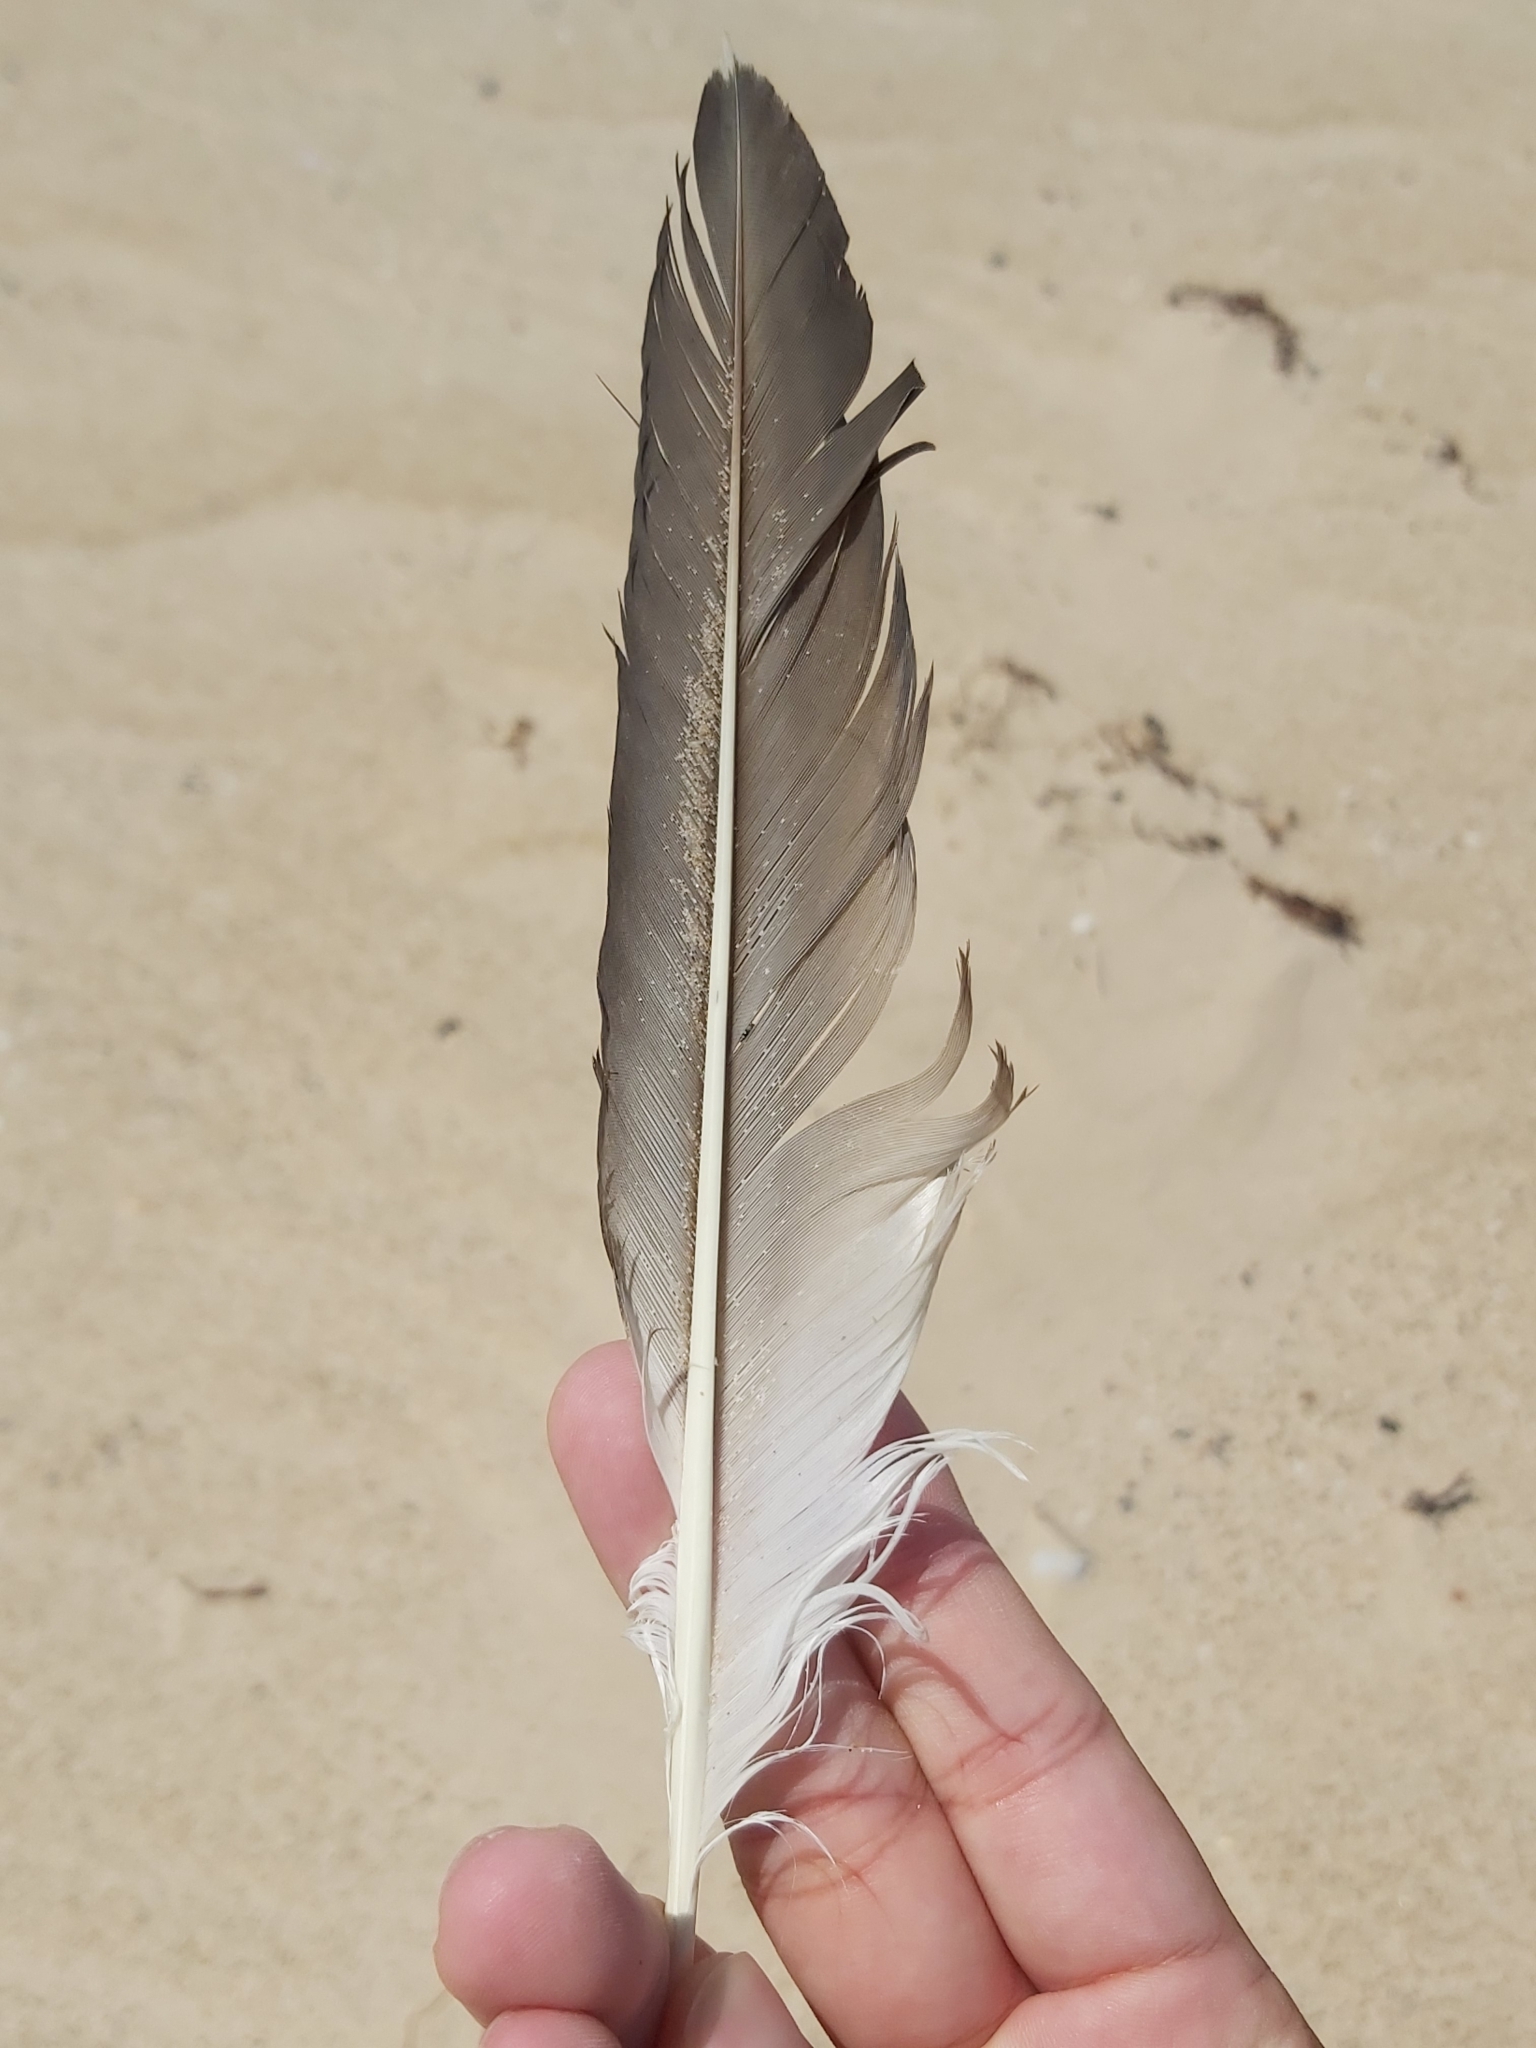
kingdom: Animalia
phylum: Chordata
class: Aves
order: Suliformes
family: Sulidae
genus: Morus
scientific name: Morus serrator
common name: Australasian gannet
